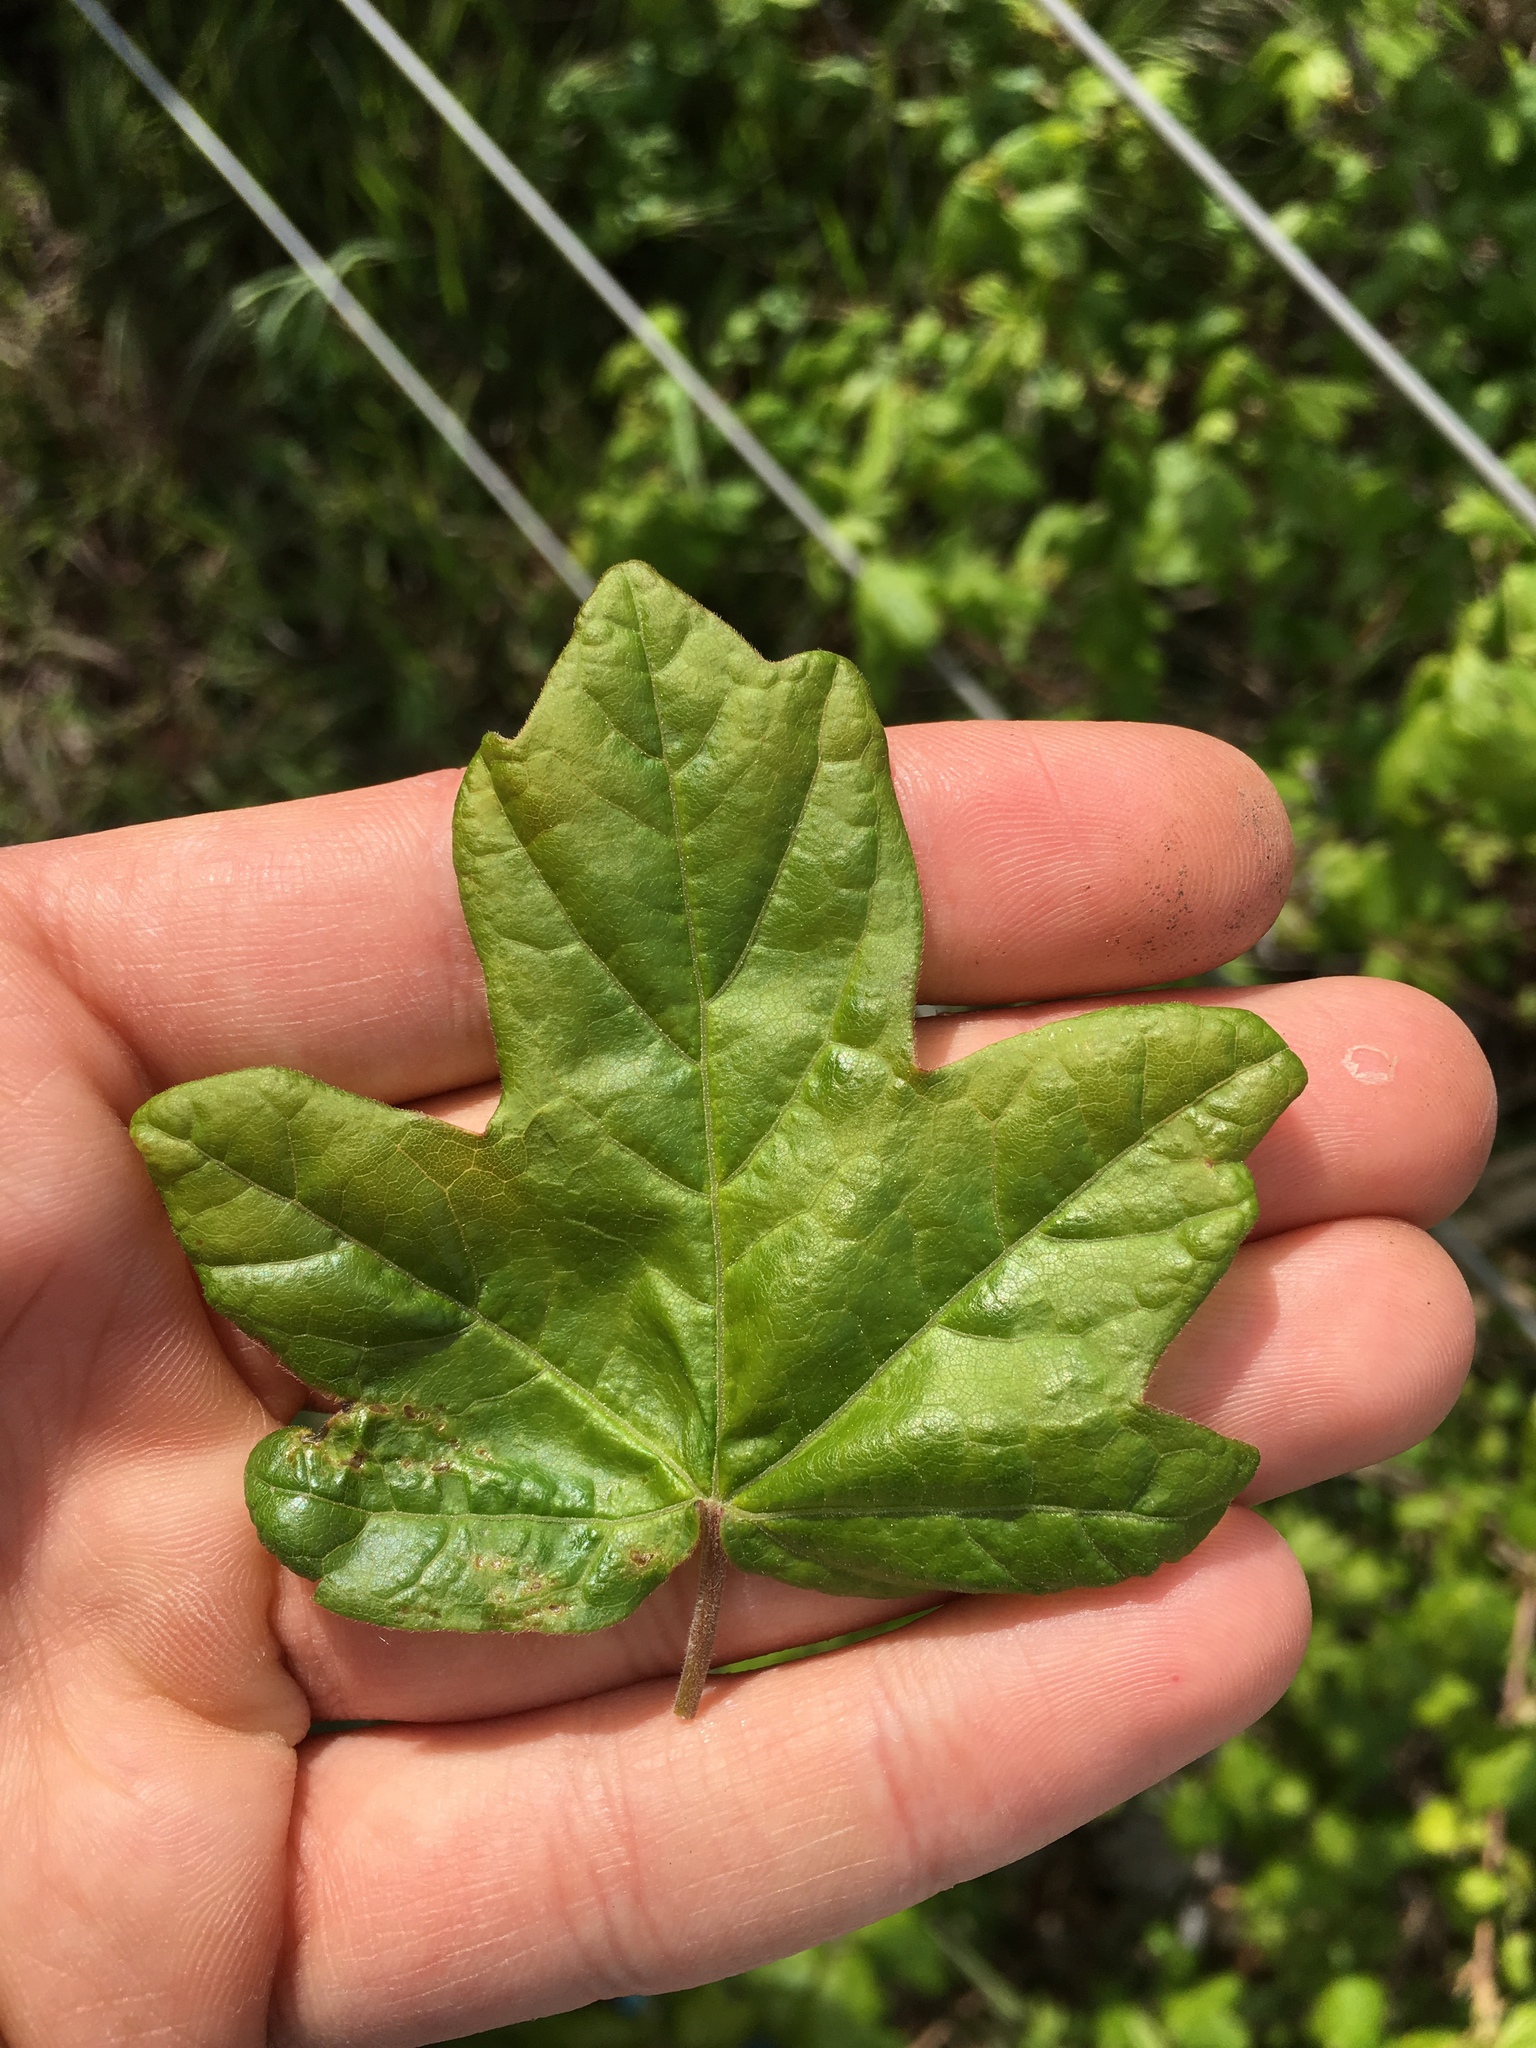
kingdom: Plantae
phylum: Tracheophyta
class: Magnoliopsida
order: Sapindales
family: Sapindaceae
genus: Acer
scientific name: Acer campestre
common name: Field maple
